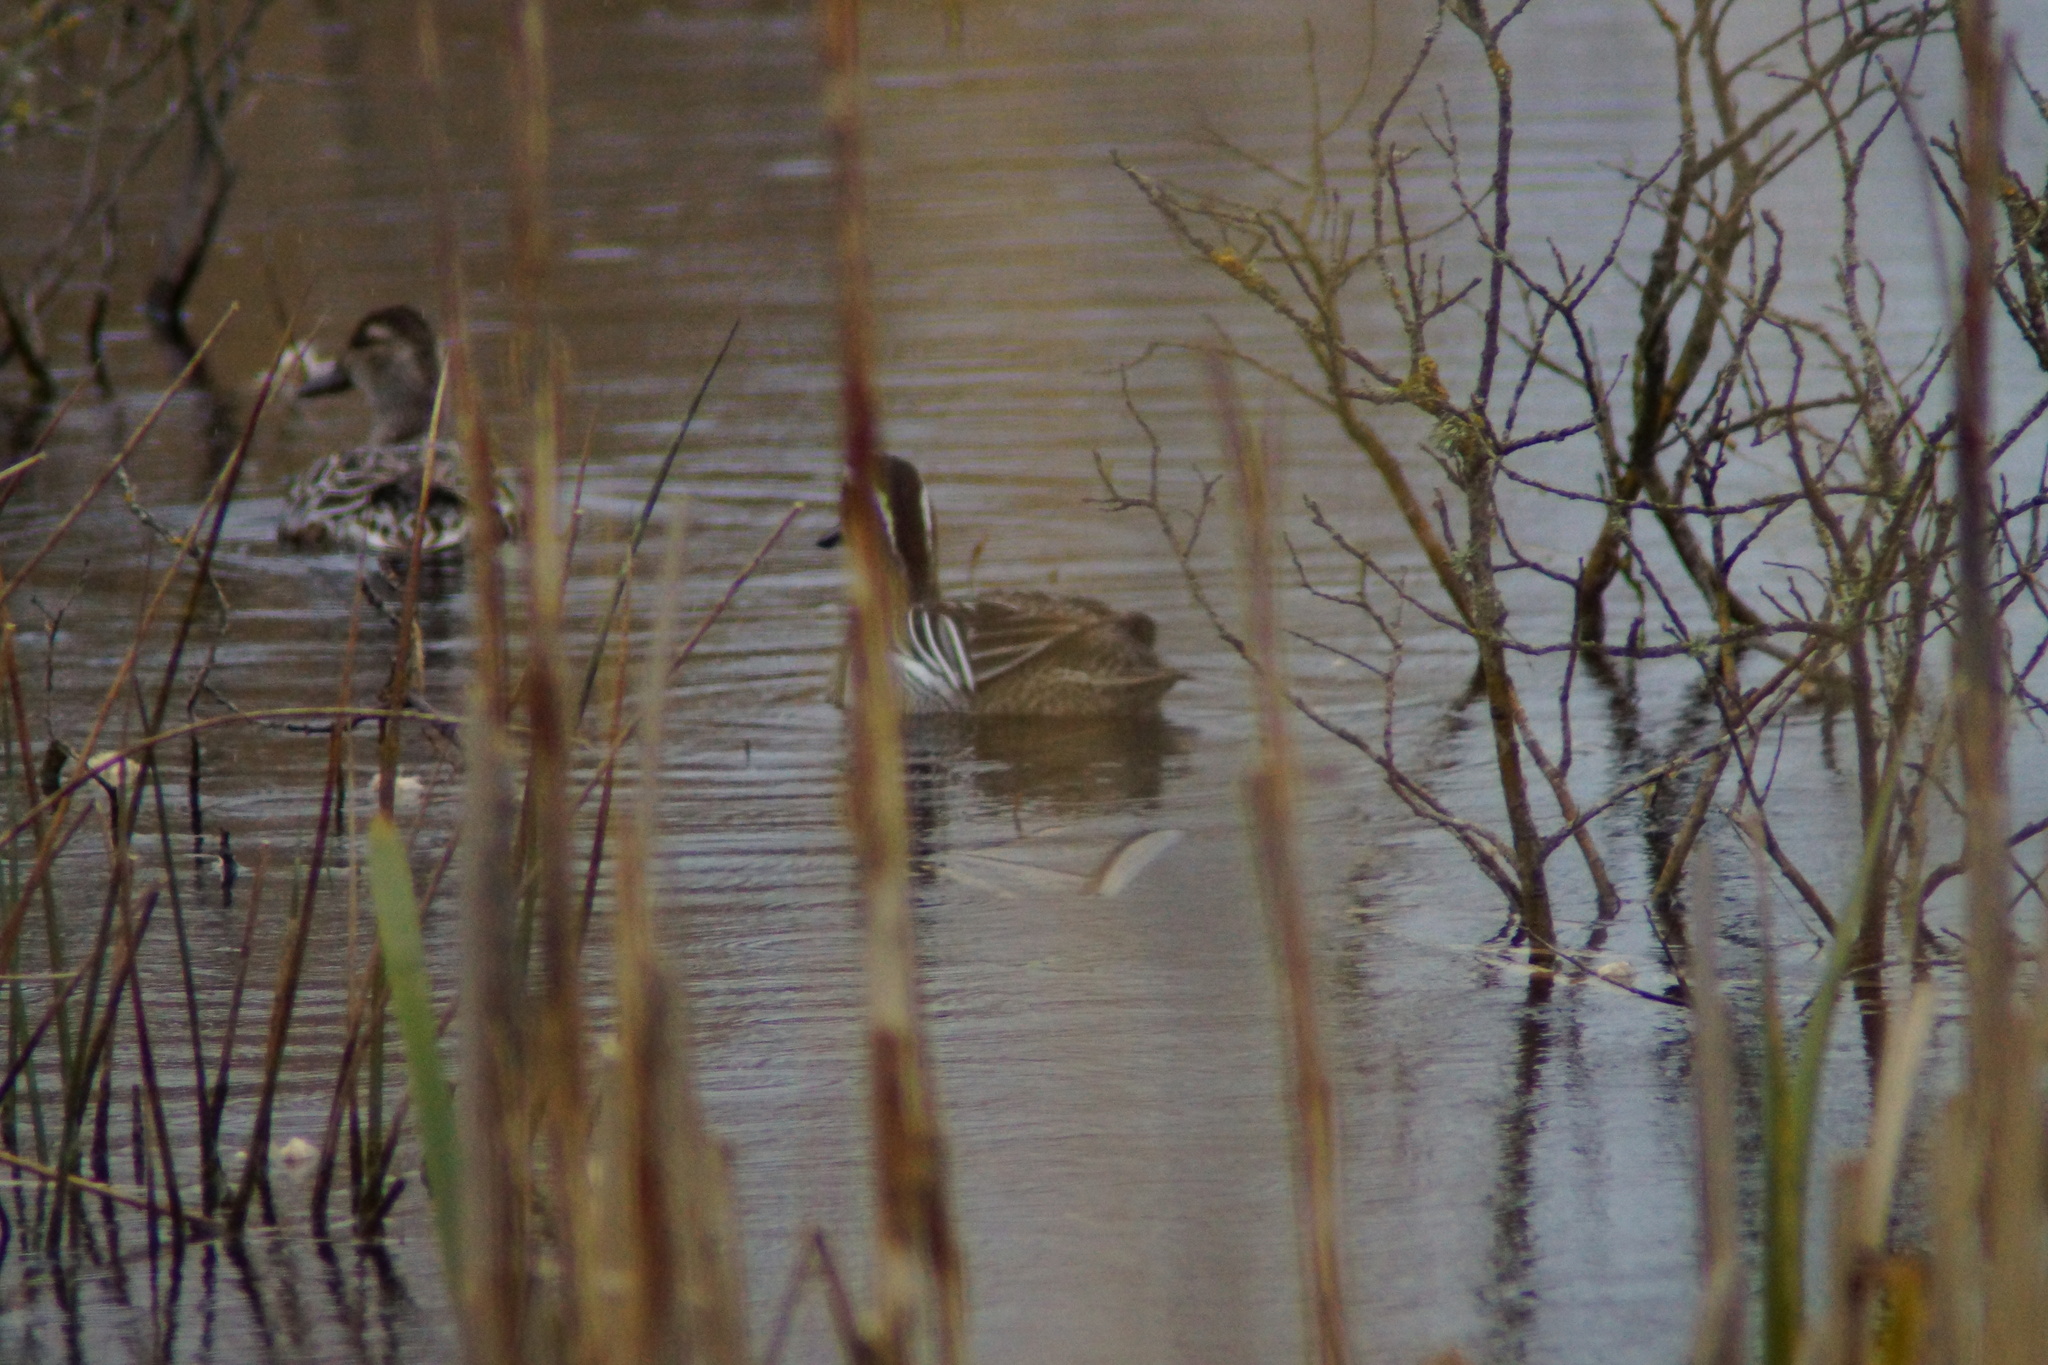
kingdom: Animalia
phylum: Chordata
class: Aves
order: Anseriformes
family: Anatidae
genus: Spatula
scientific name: Spatula querquedula
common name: Garganey
